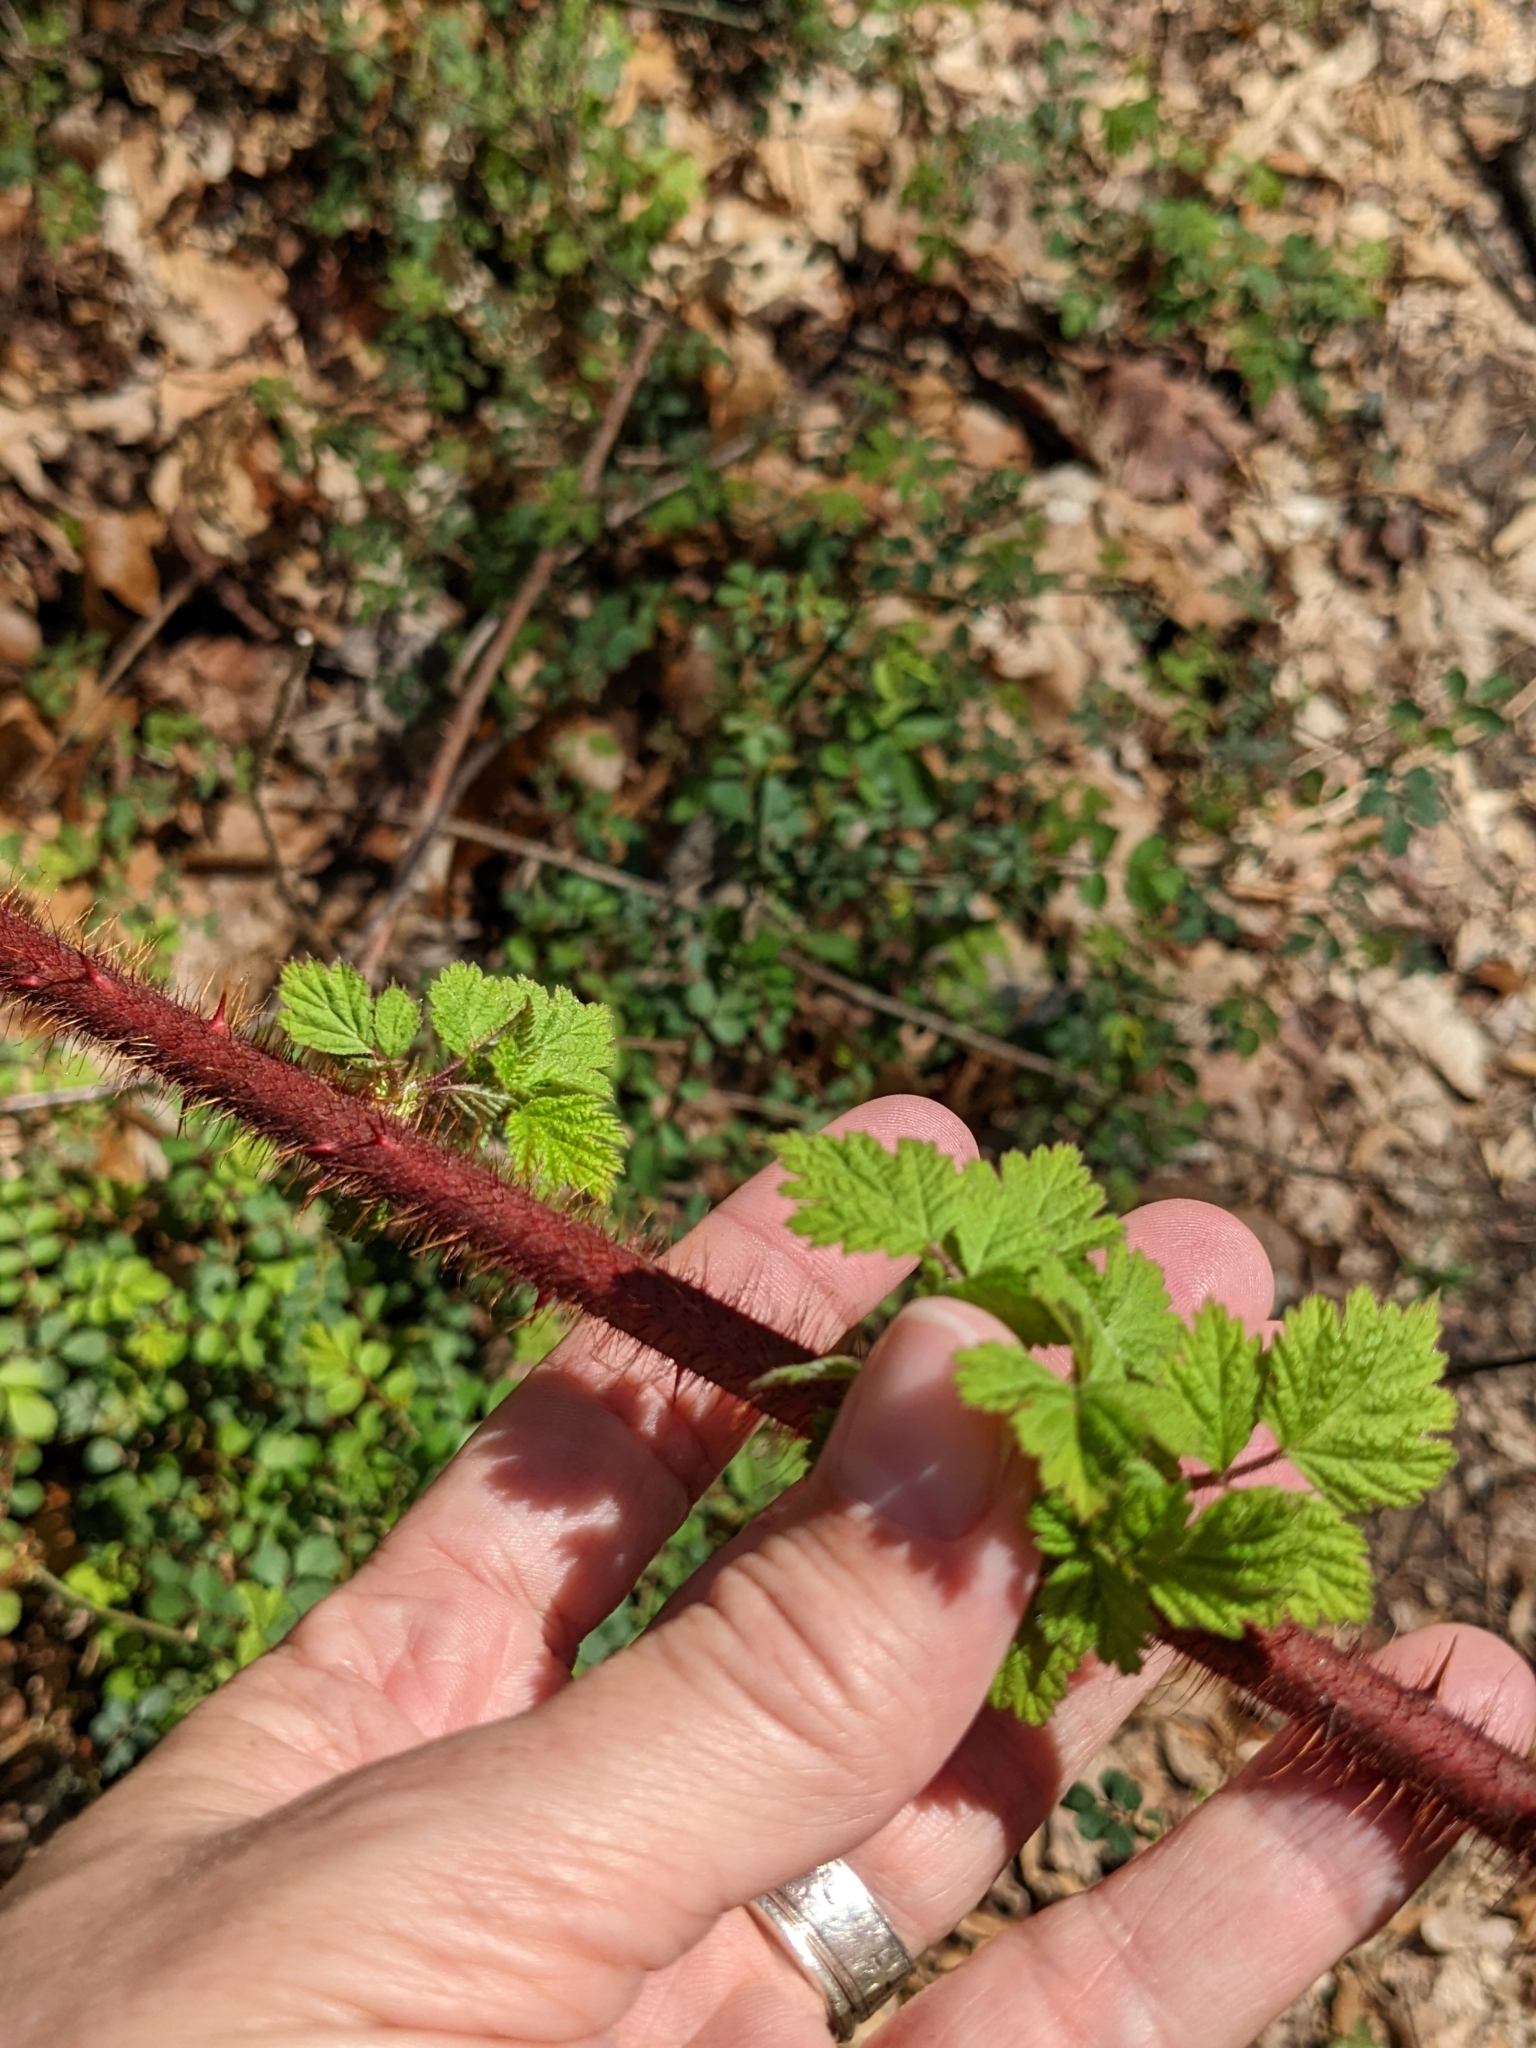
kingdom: Plantae
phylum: Tracheophyta
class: Magnoliopsida
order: Rosales
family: Rosaceae
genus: Rubus
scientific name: Rubus phoenicolasius
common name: Japanese wineberry
